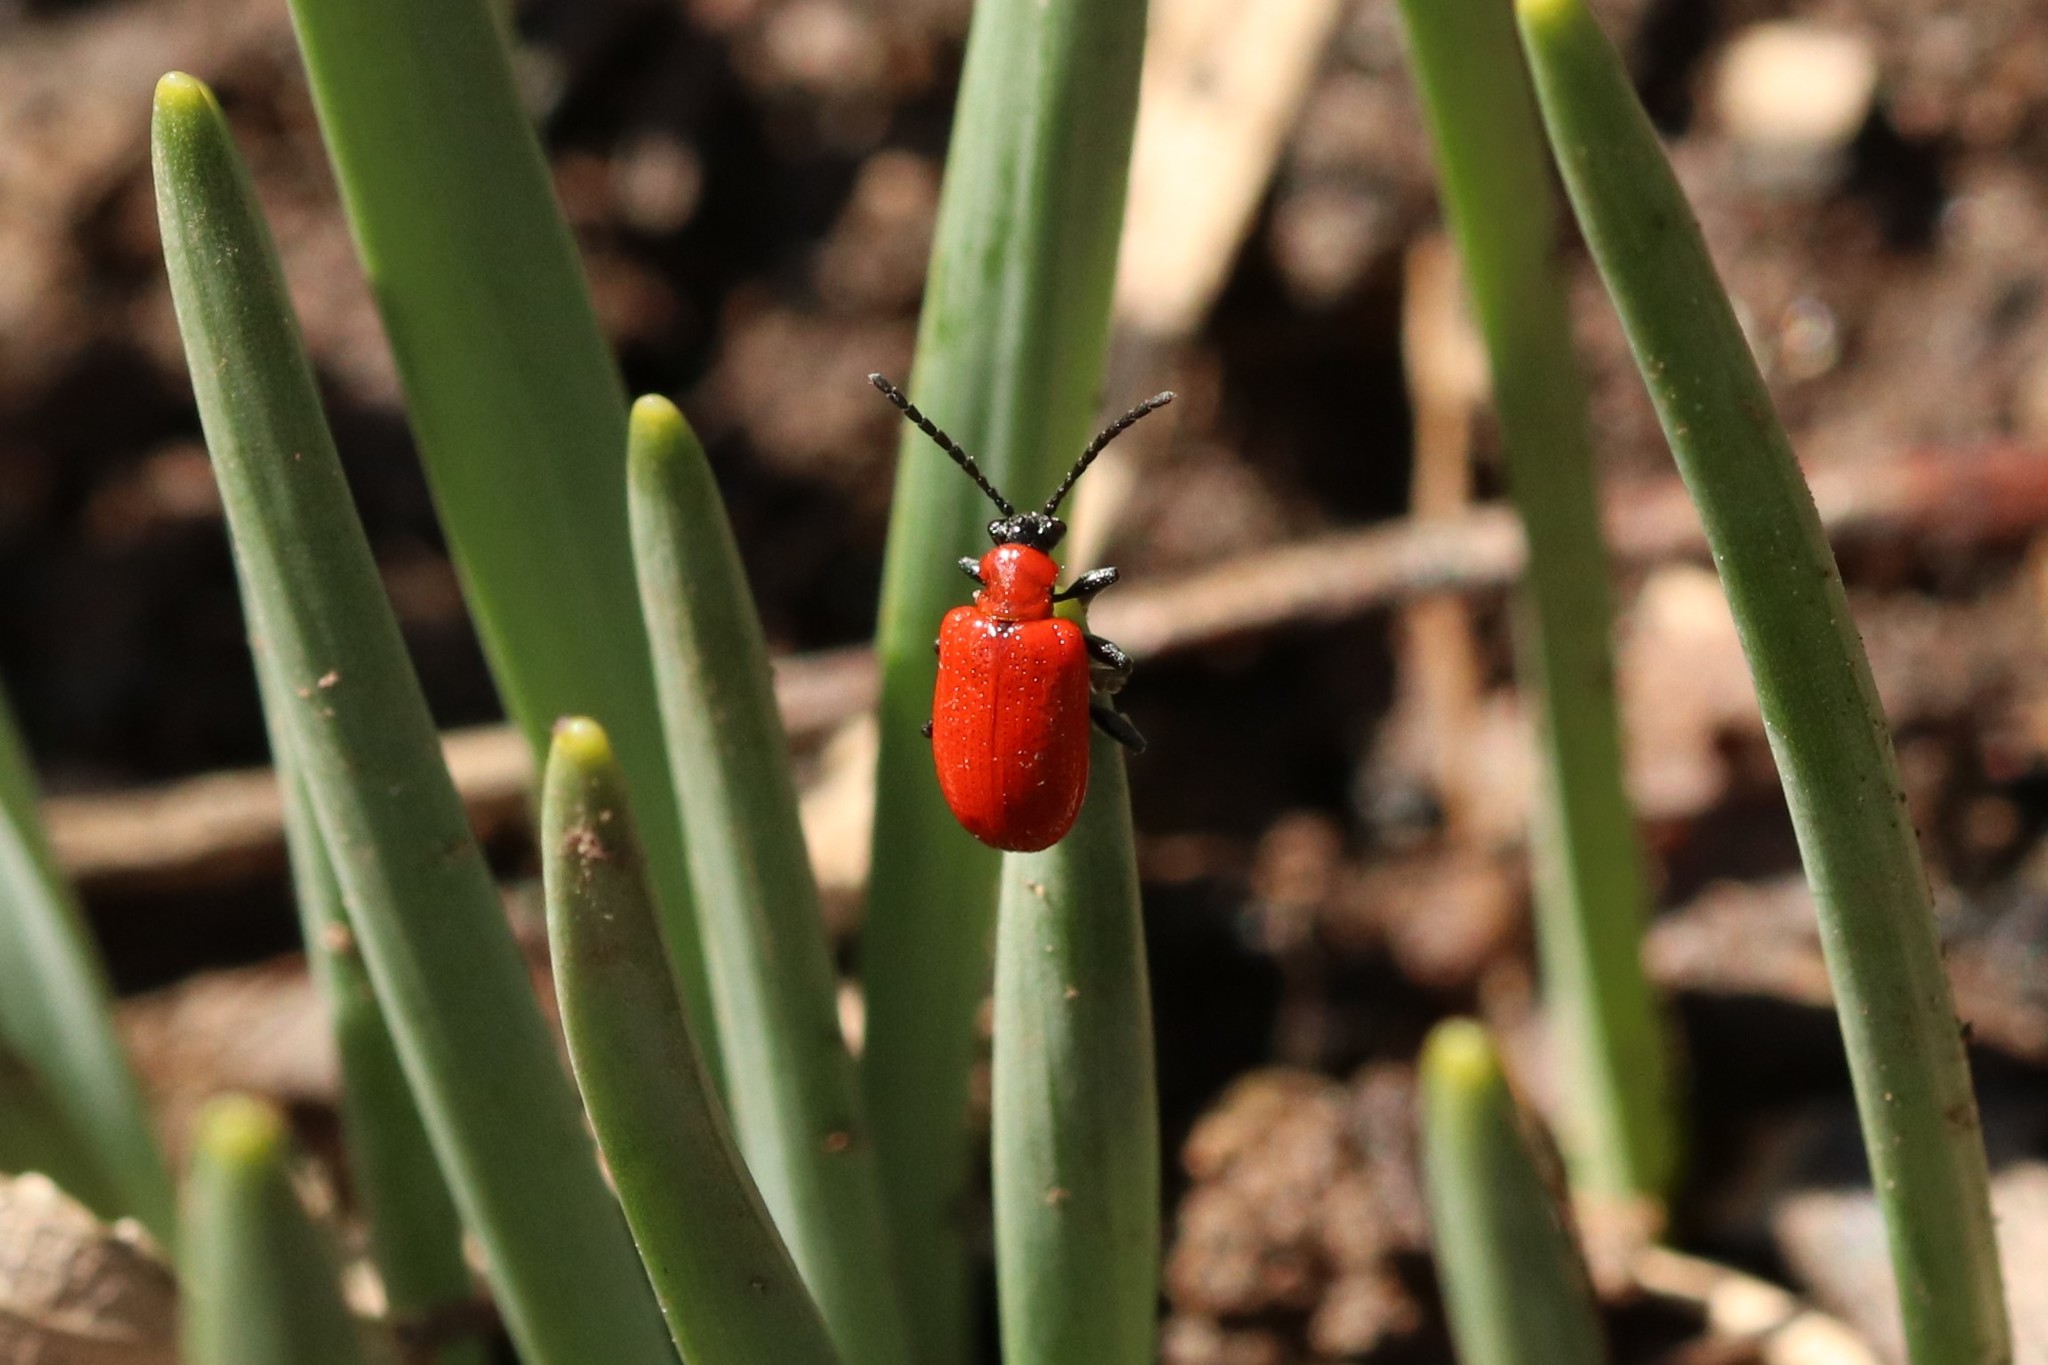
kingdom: Animalia
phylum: Arthropoda
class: Insecta
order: Coleoptera
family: Chrysomelidae
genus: Lilioceris
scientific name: Lilioceris lilii
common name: Lily beetle
